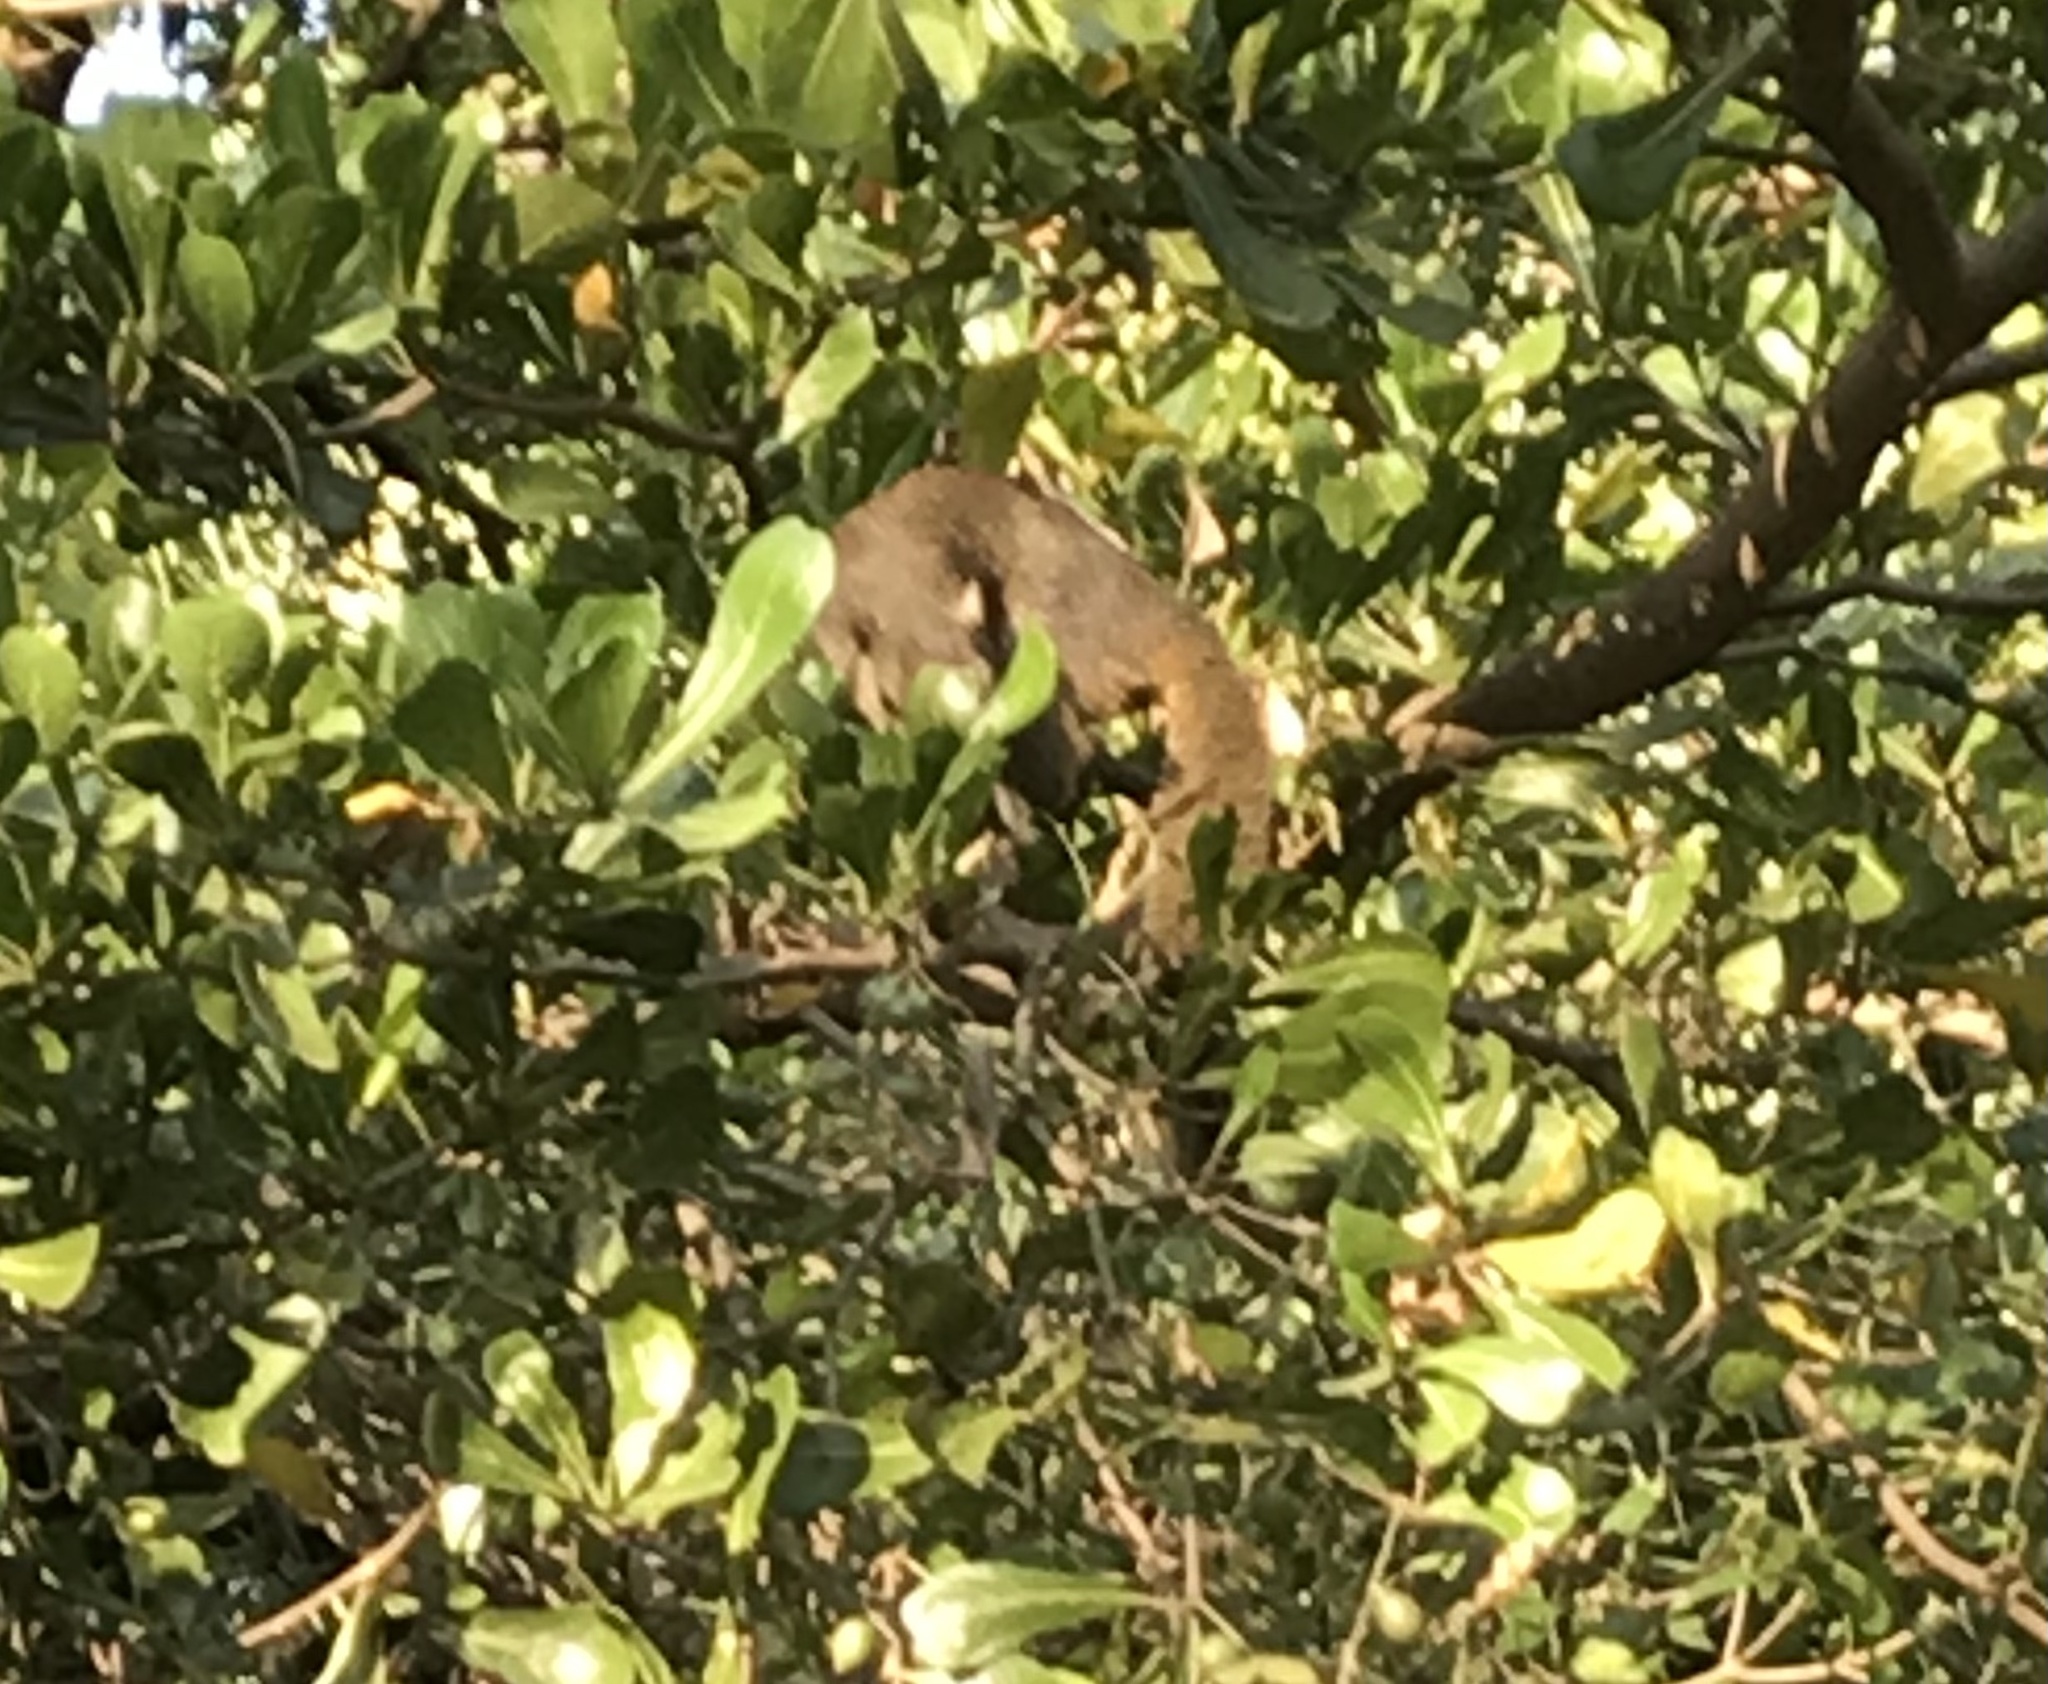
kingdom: Animalia
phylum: Chordata
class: Mammalia
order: Rodentia
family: Sciuridae
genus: Callosciurus
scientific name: Callosciurus pygerythrus
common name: Irrawaddy squirrel
